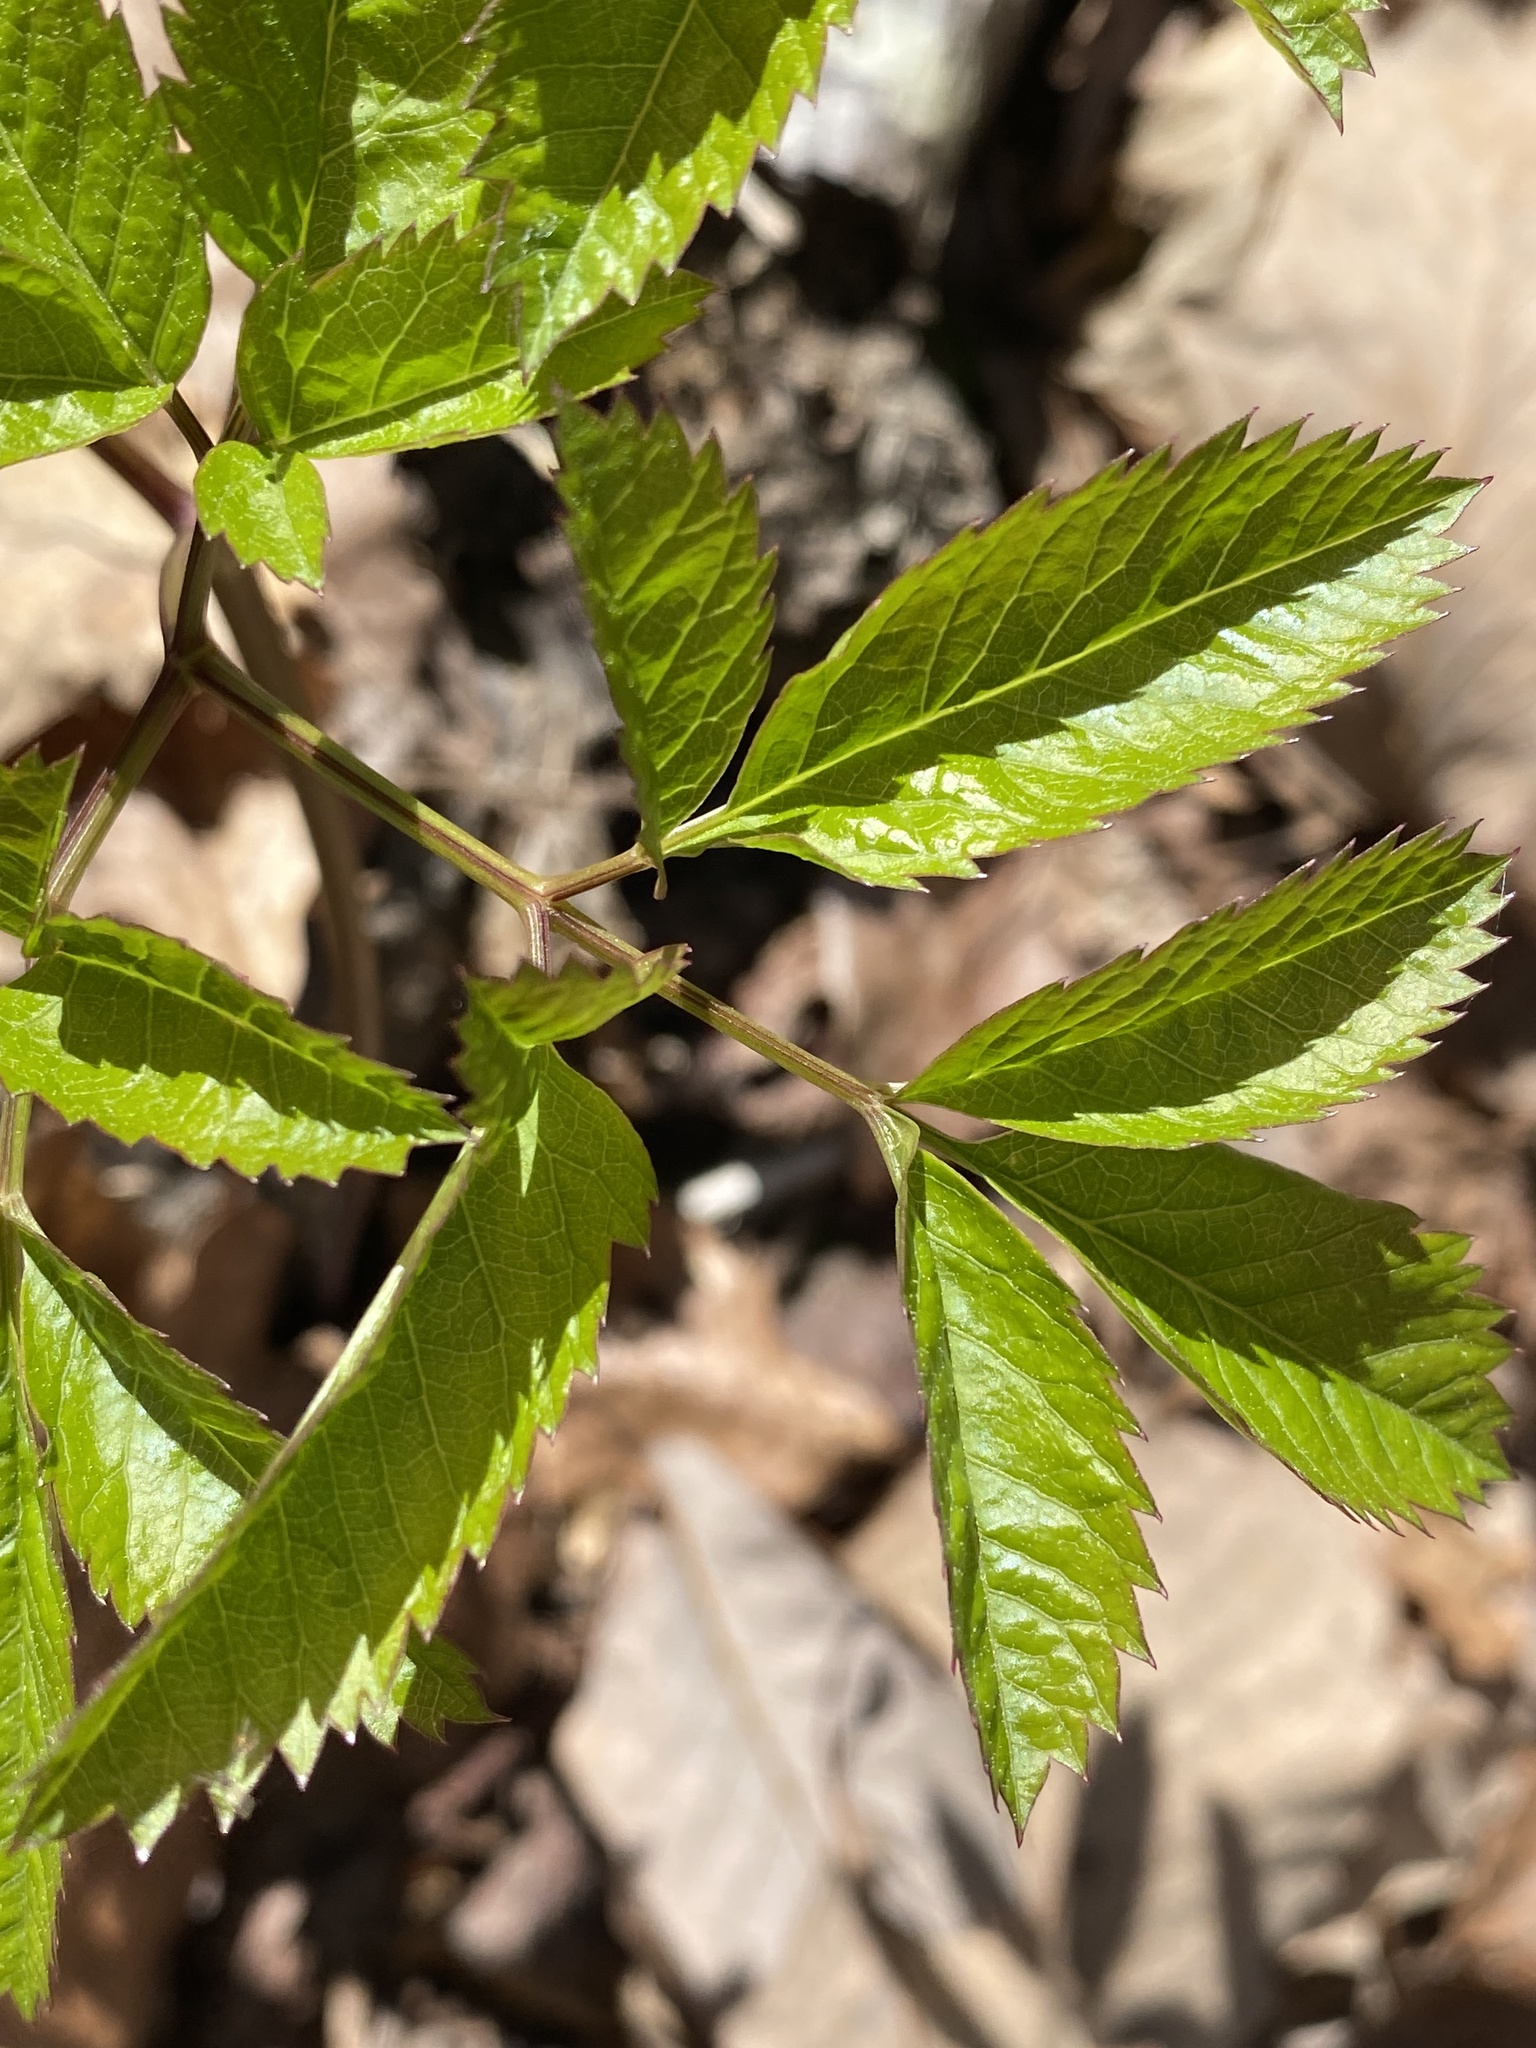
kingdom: Plantae
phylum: Tracheophyta
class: Magnoliopsida
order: Apiales
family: Apiaceae
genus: Ligusticum
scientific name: Ligusticum canadense
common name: American lovage
